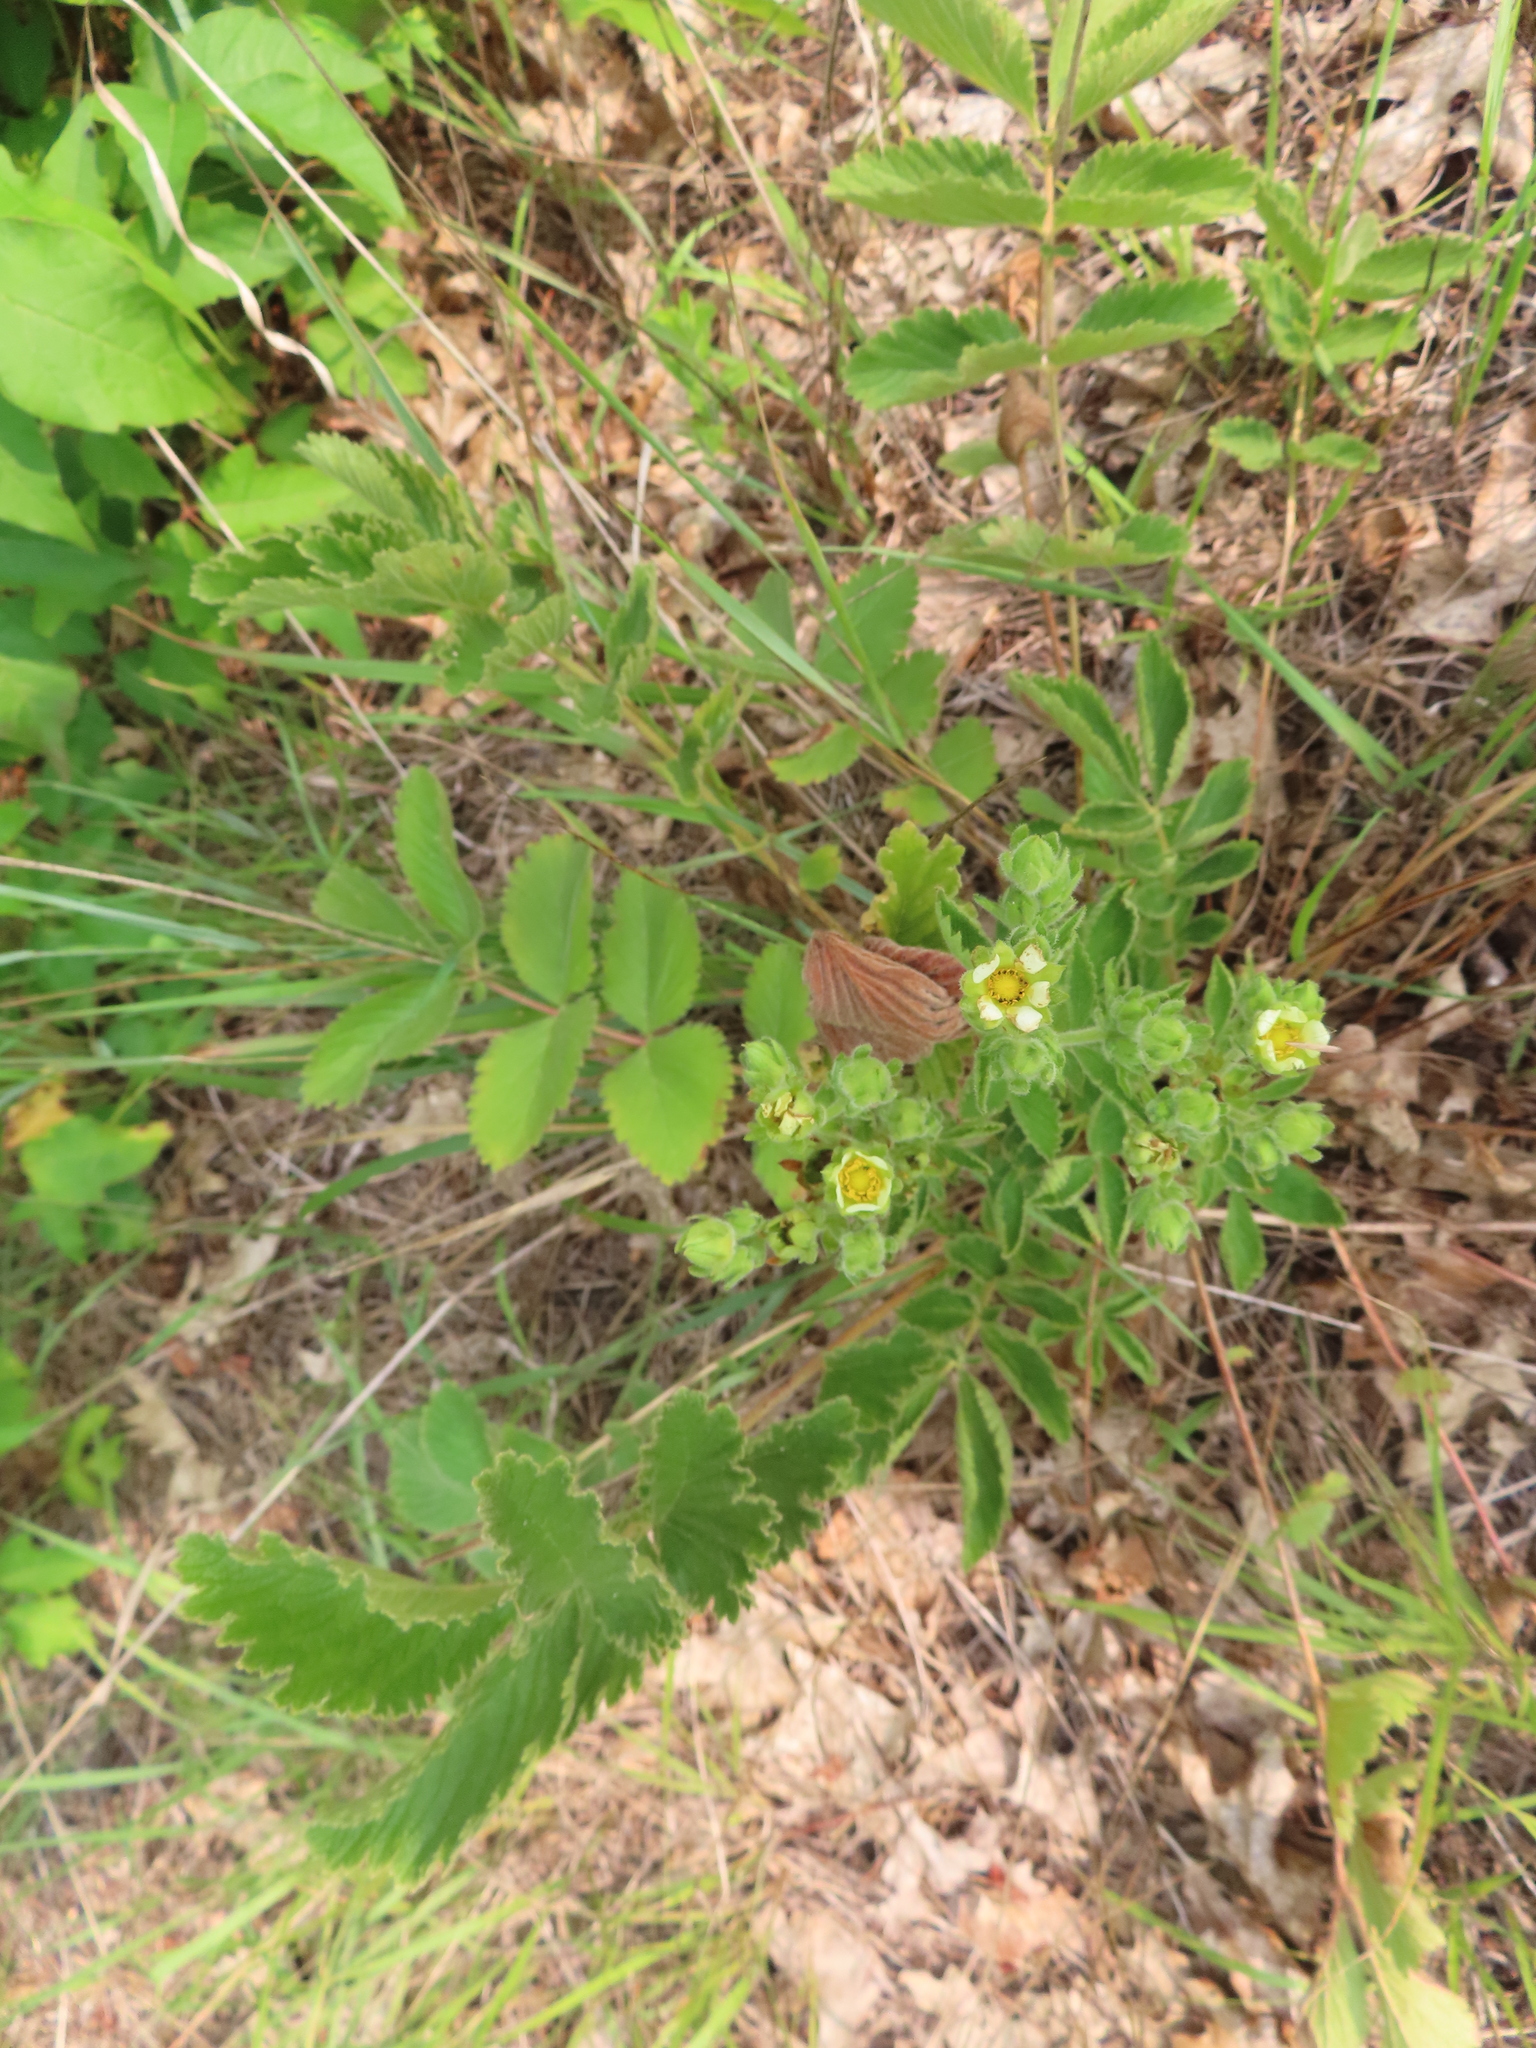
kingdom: Plantae
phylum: Tracheophyta
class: Magnoliopsida
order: Rosales
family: Rosaceae
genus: Drymocallis
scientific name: Drymocallis arguta
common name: Tall cinquefoil
